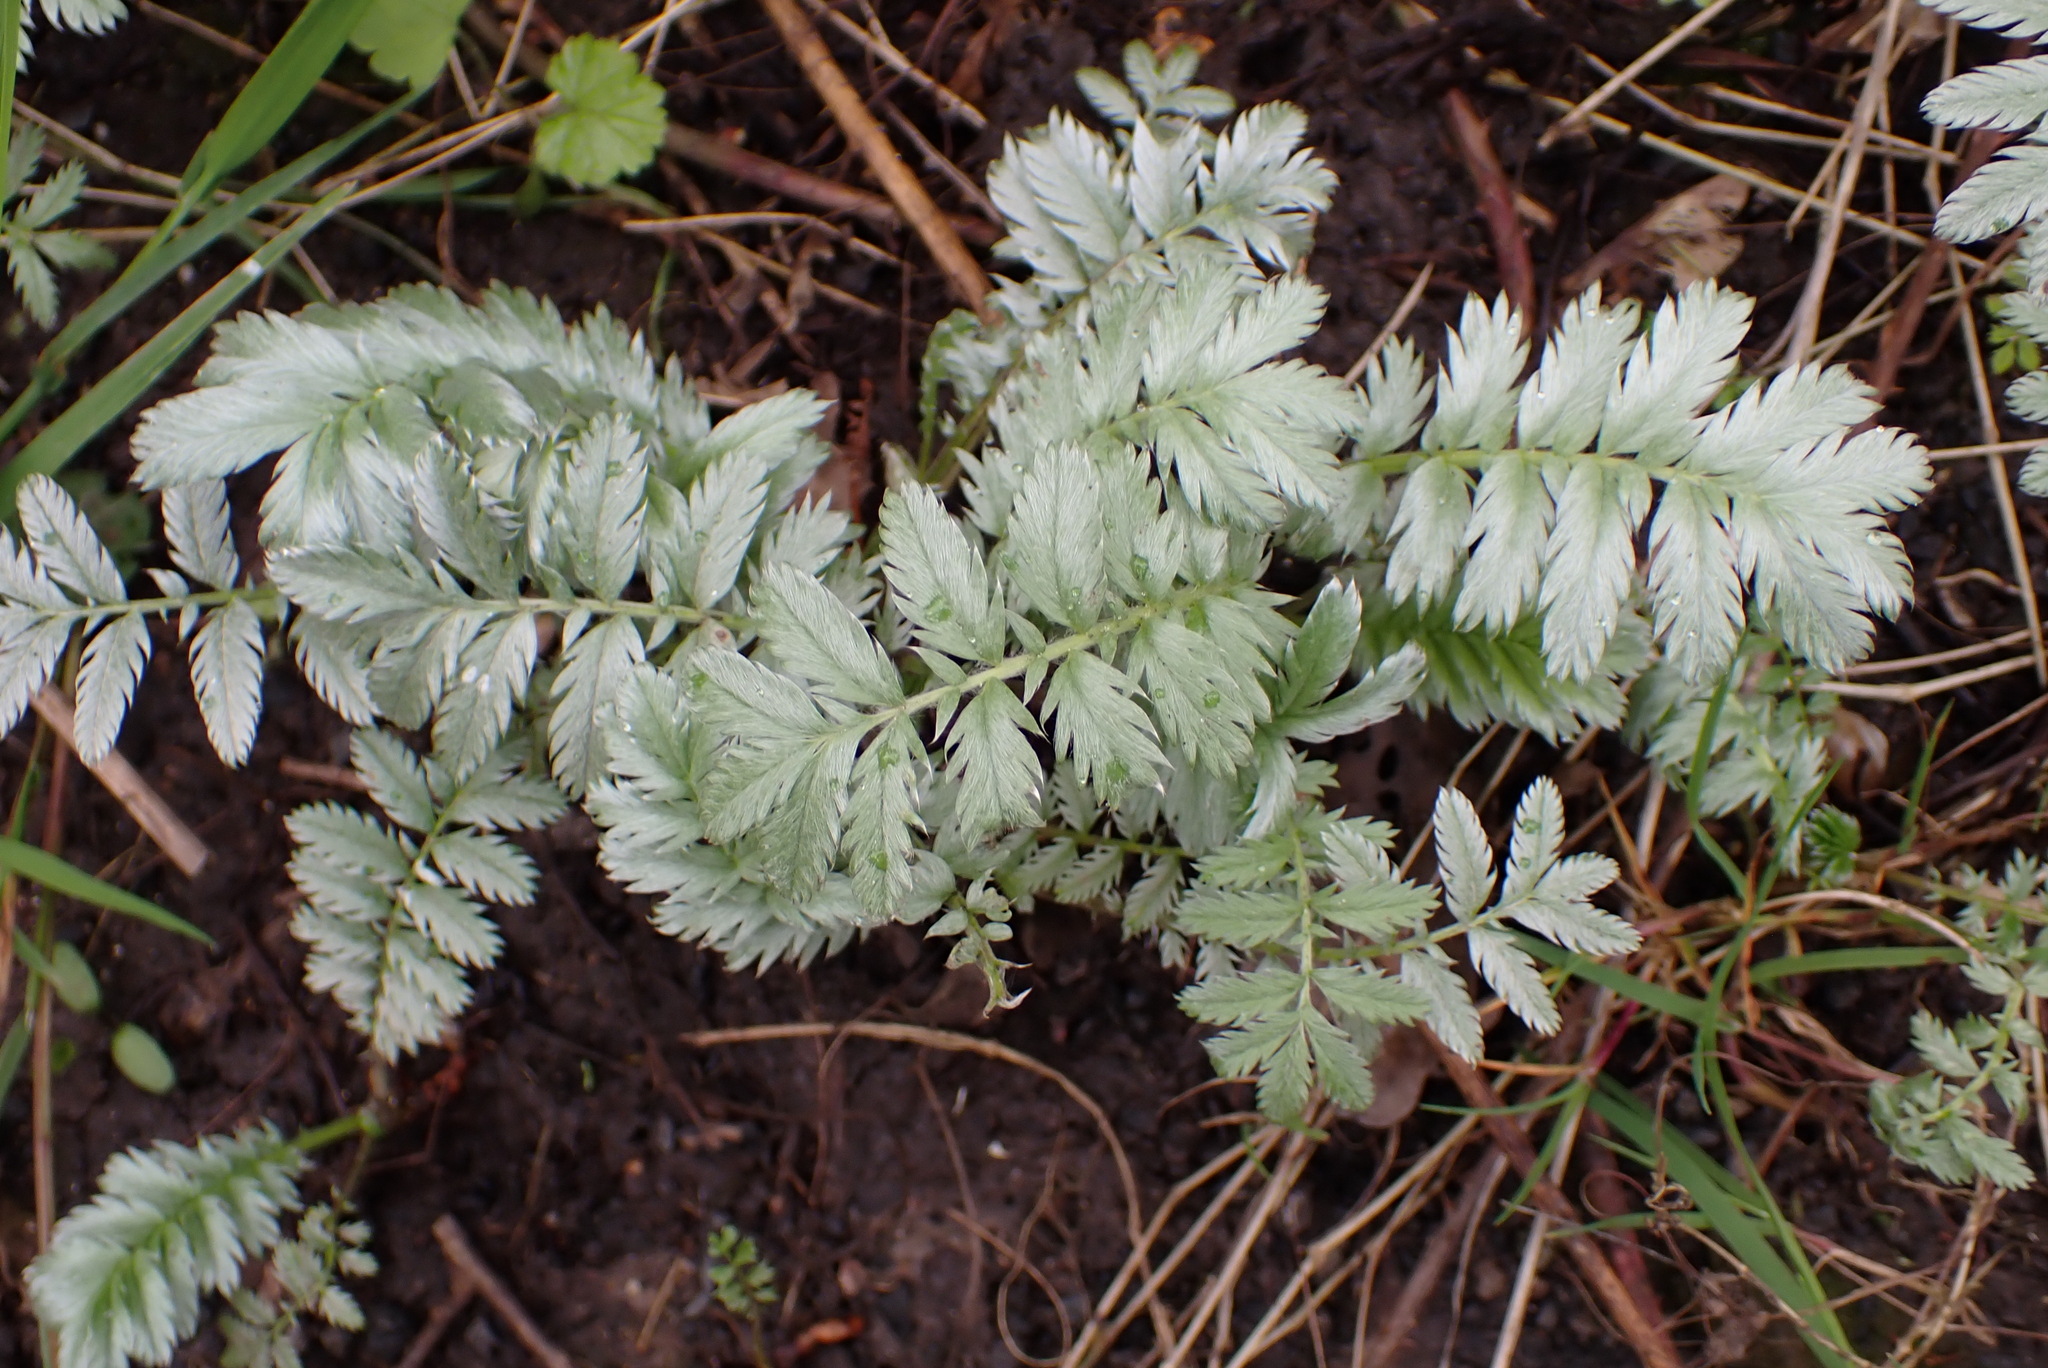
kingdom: Plantae
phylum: Tracheophyta
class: Magnoliopsida
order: Rosales
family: Rosaceae
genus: Argentina
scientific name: Argentina anserina
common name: Common silverweed
